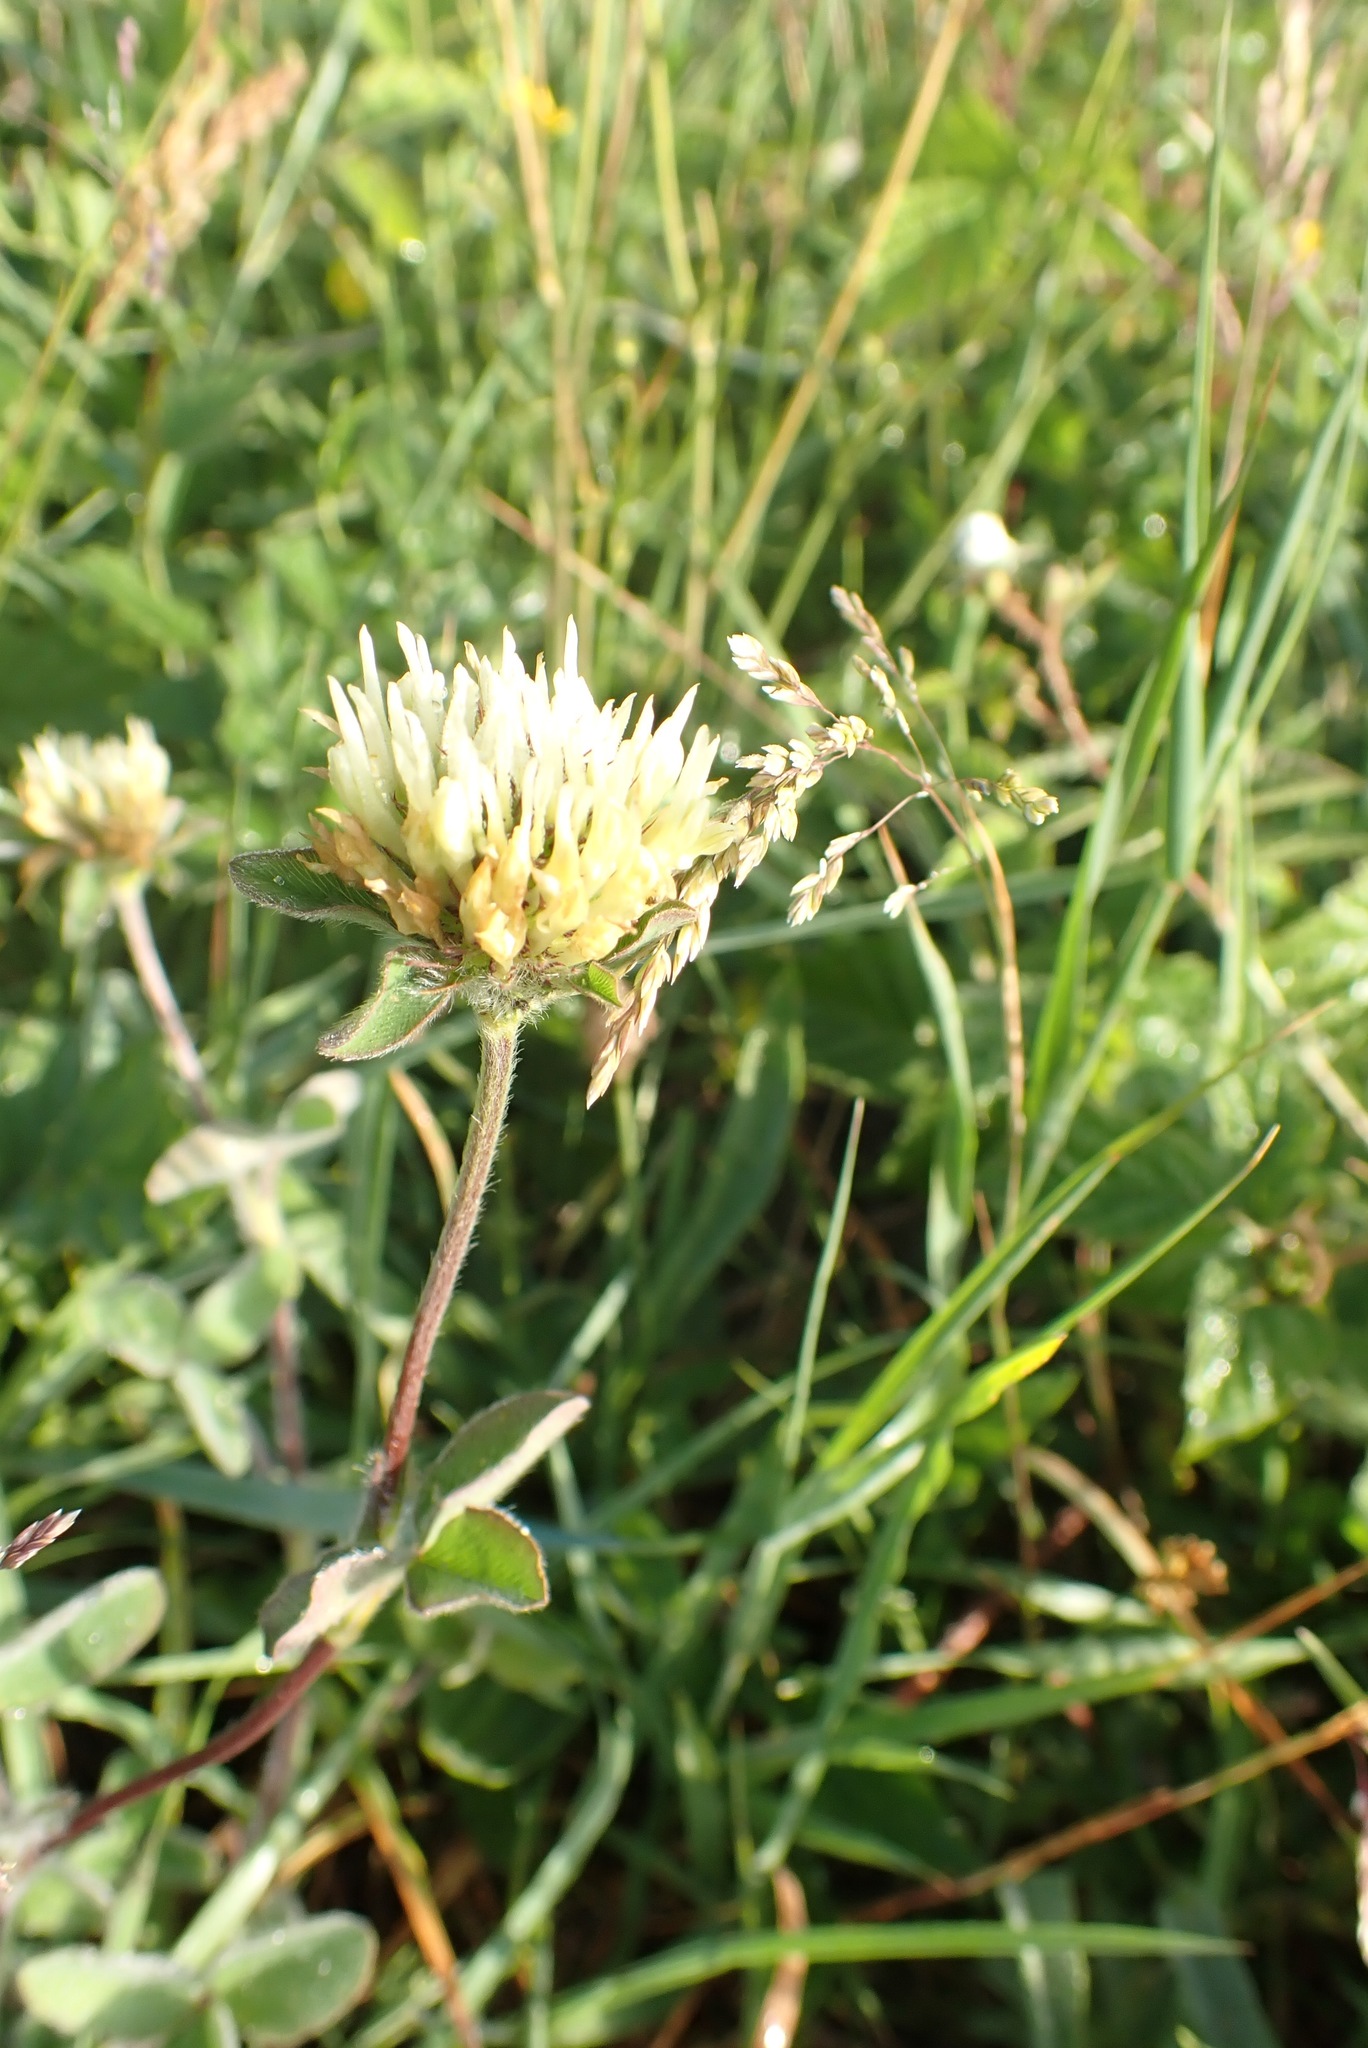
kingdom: Plantae
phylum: Tracheophyta
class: Magnoliopsida
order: Fabales
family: Fabaceae
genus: Trifolium
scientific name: Trifolium ochroleucon
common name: Sulphur clover
